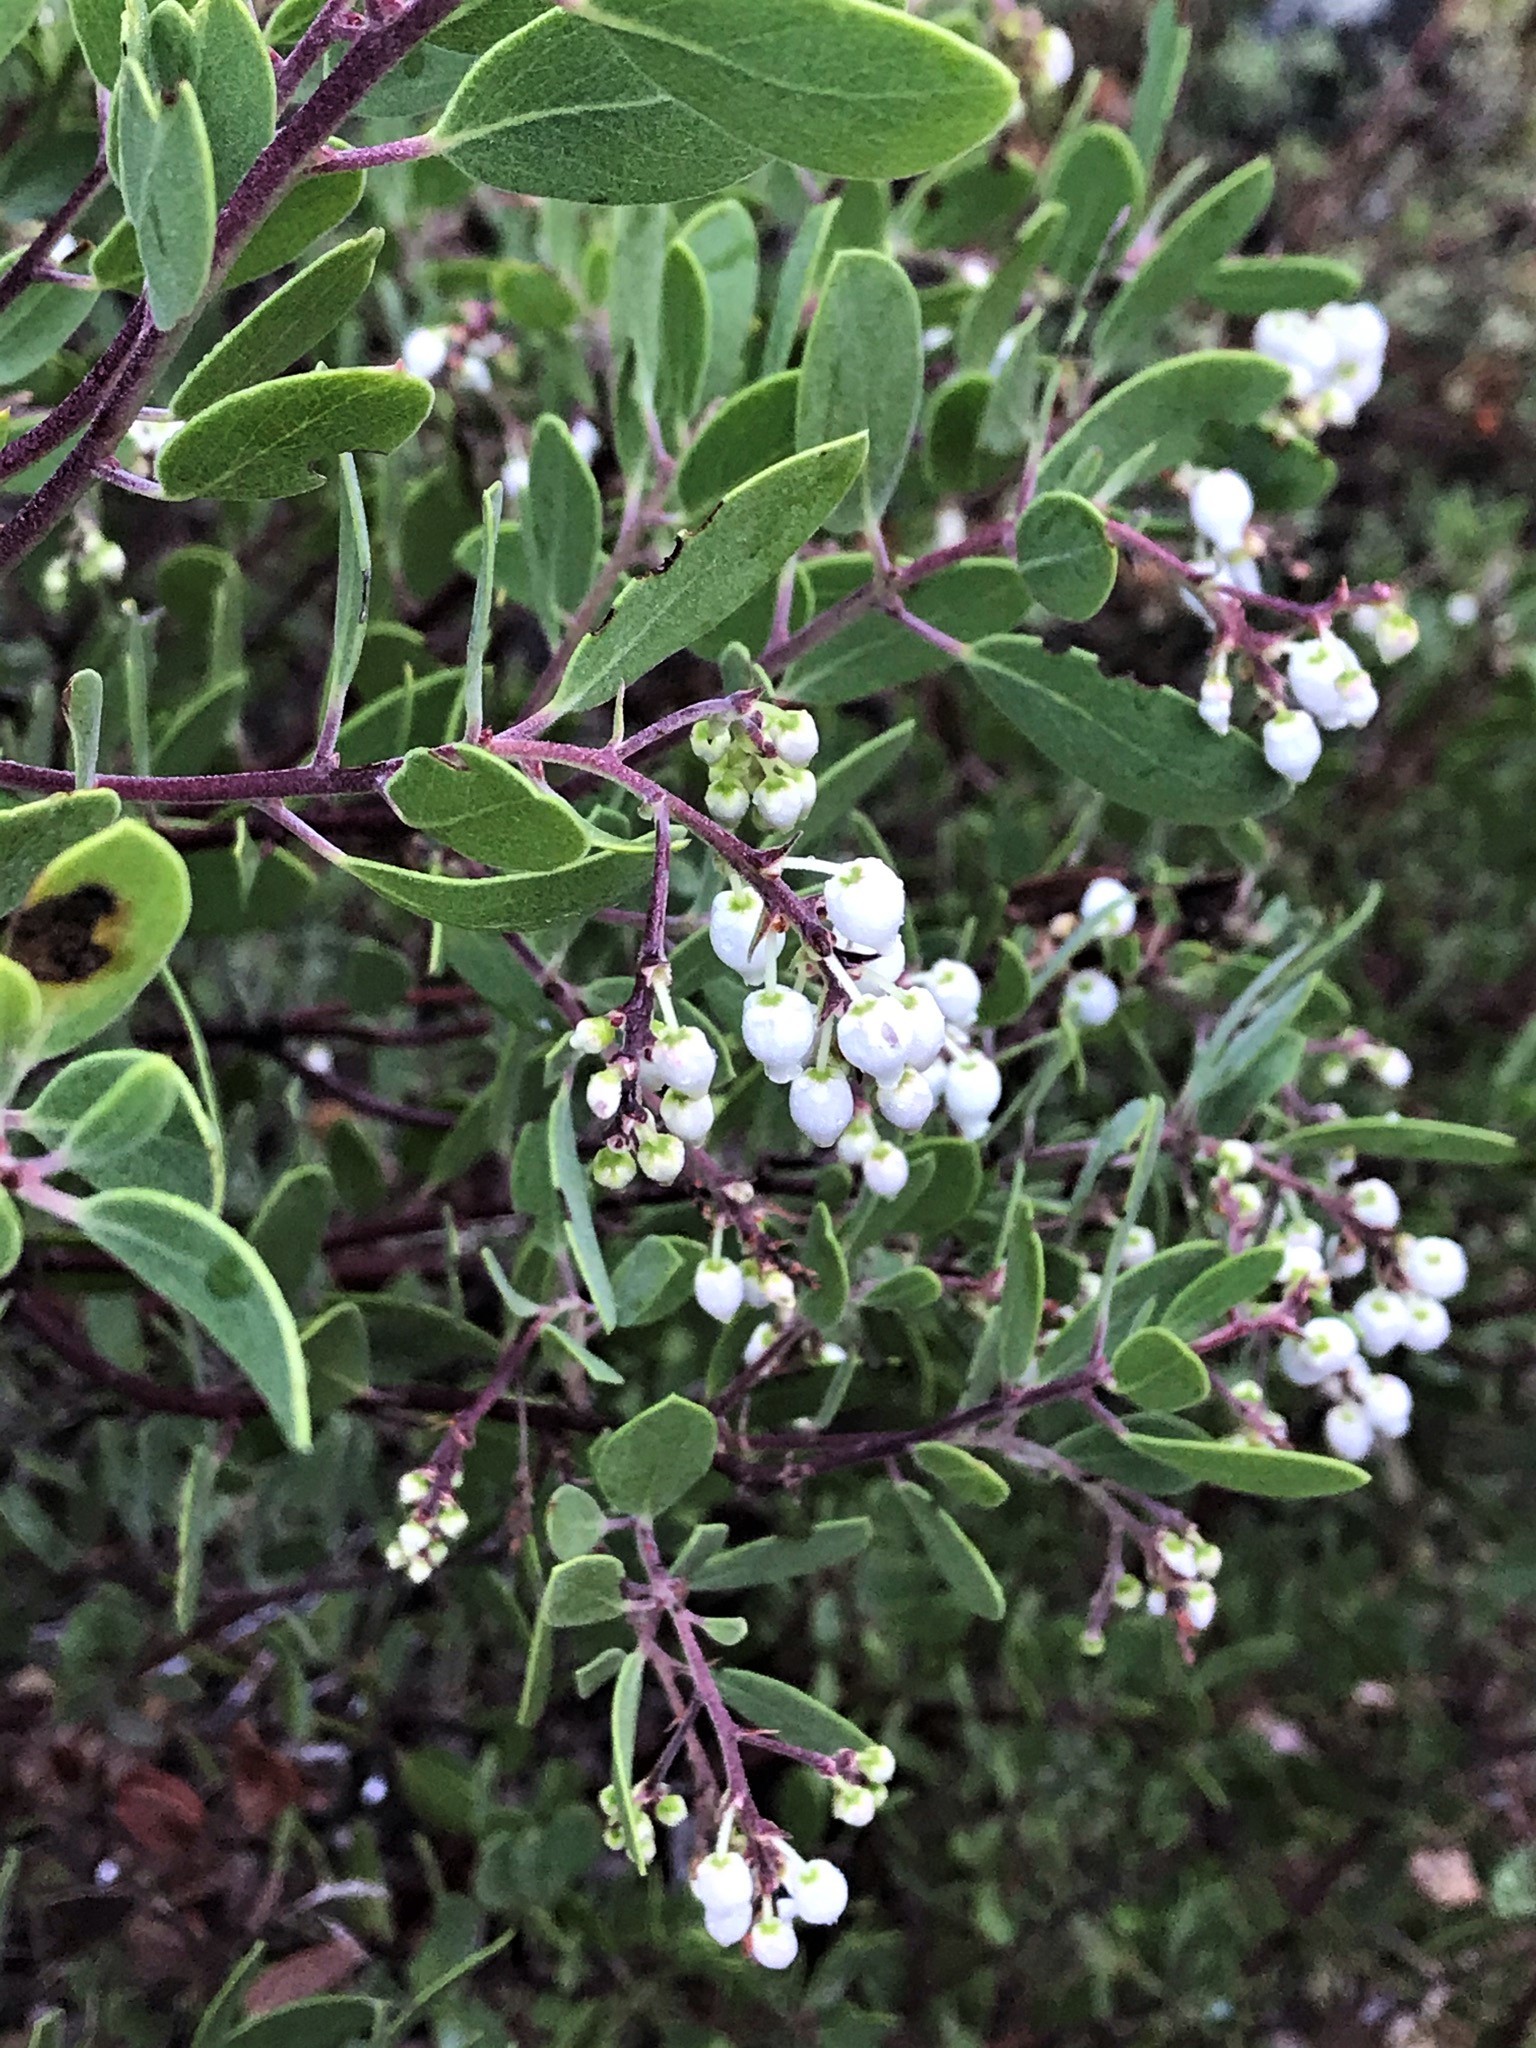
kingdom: Plantae
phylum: Tracheophyta
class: Magnoliopsida
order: Ericales
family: Ericaceae
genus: Arctostaphylos
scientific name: Arctostaphylos bakeri
